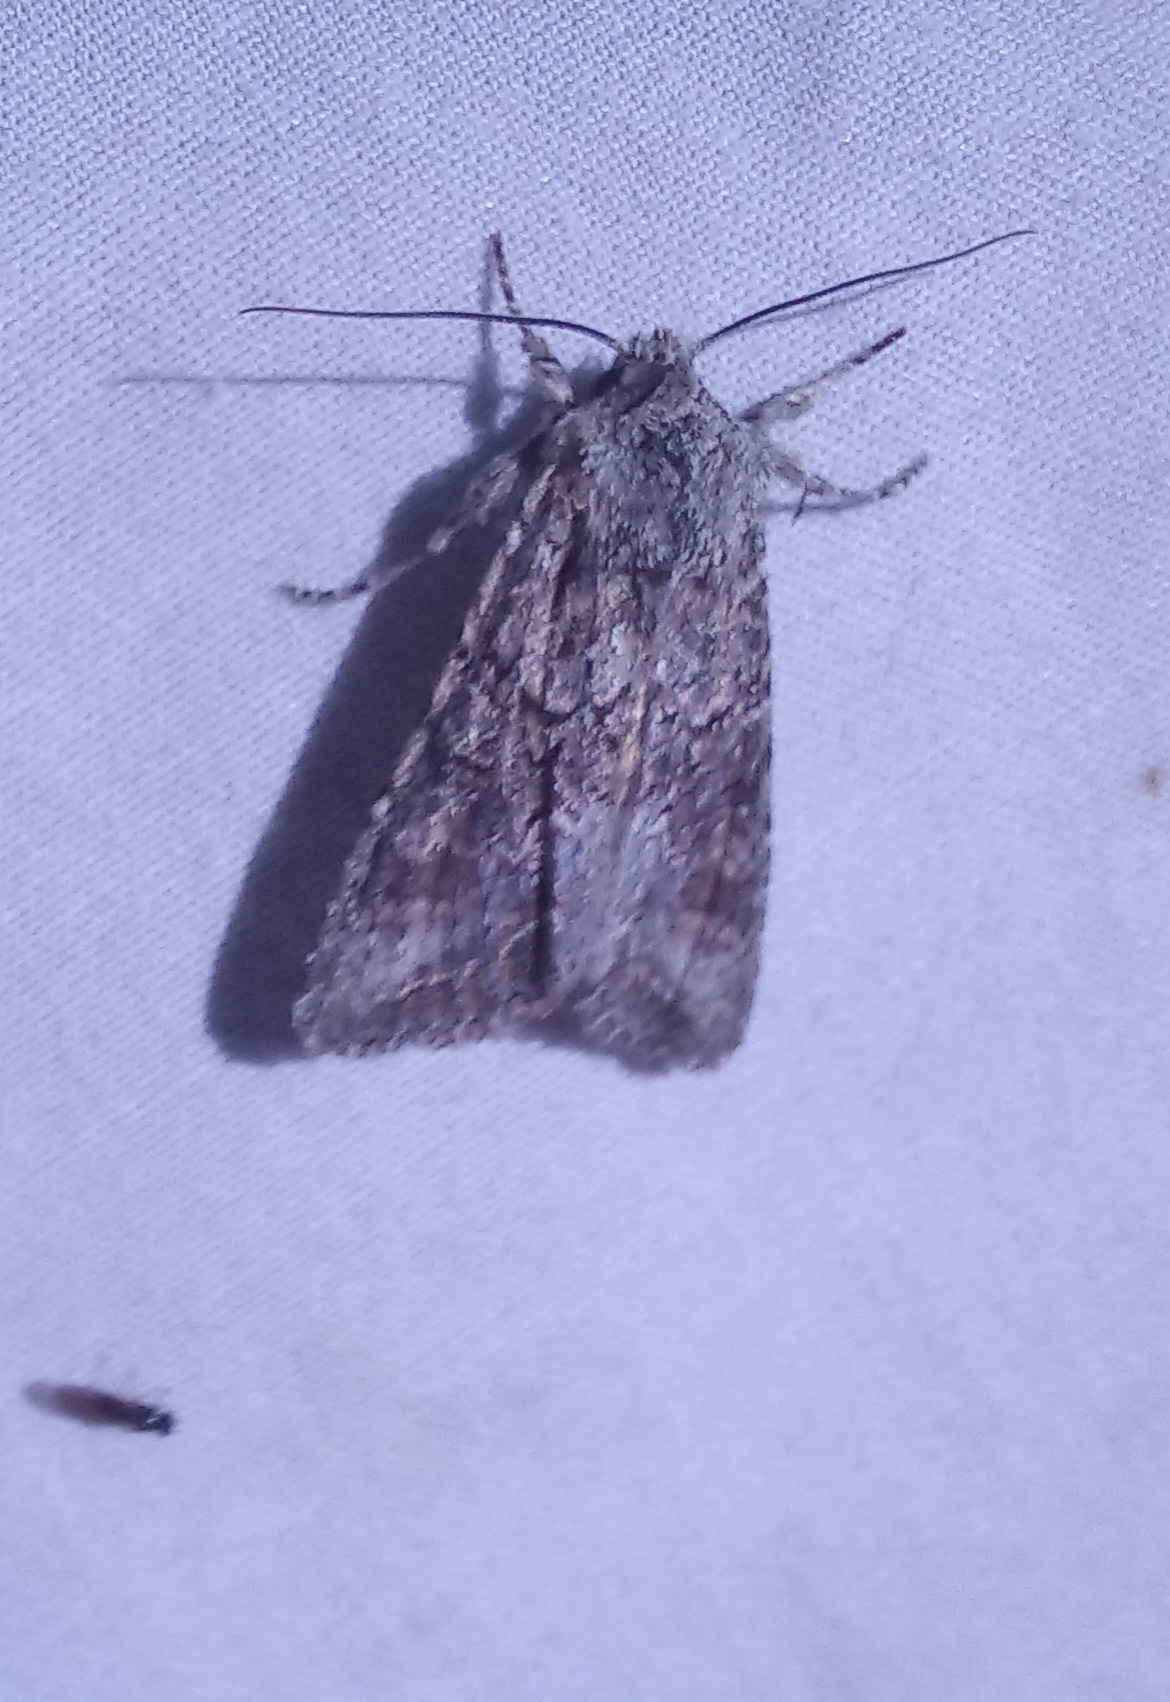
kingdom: Animalia
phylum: Arthropoda
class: Insecta
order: Lepidoptera
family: Noctuidae
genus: Ichneutica
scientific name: Ichneutica mutans
